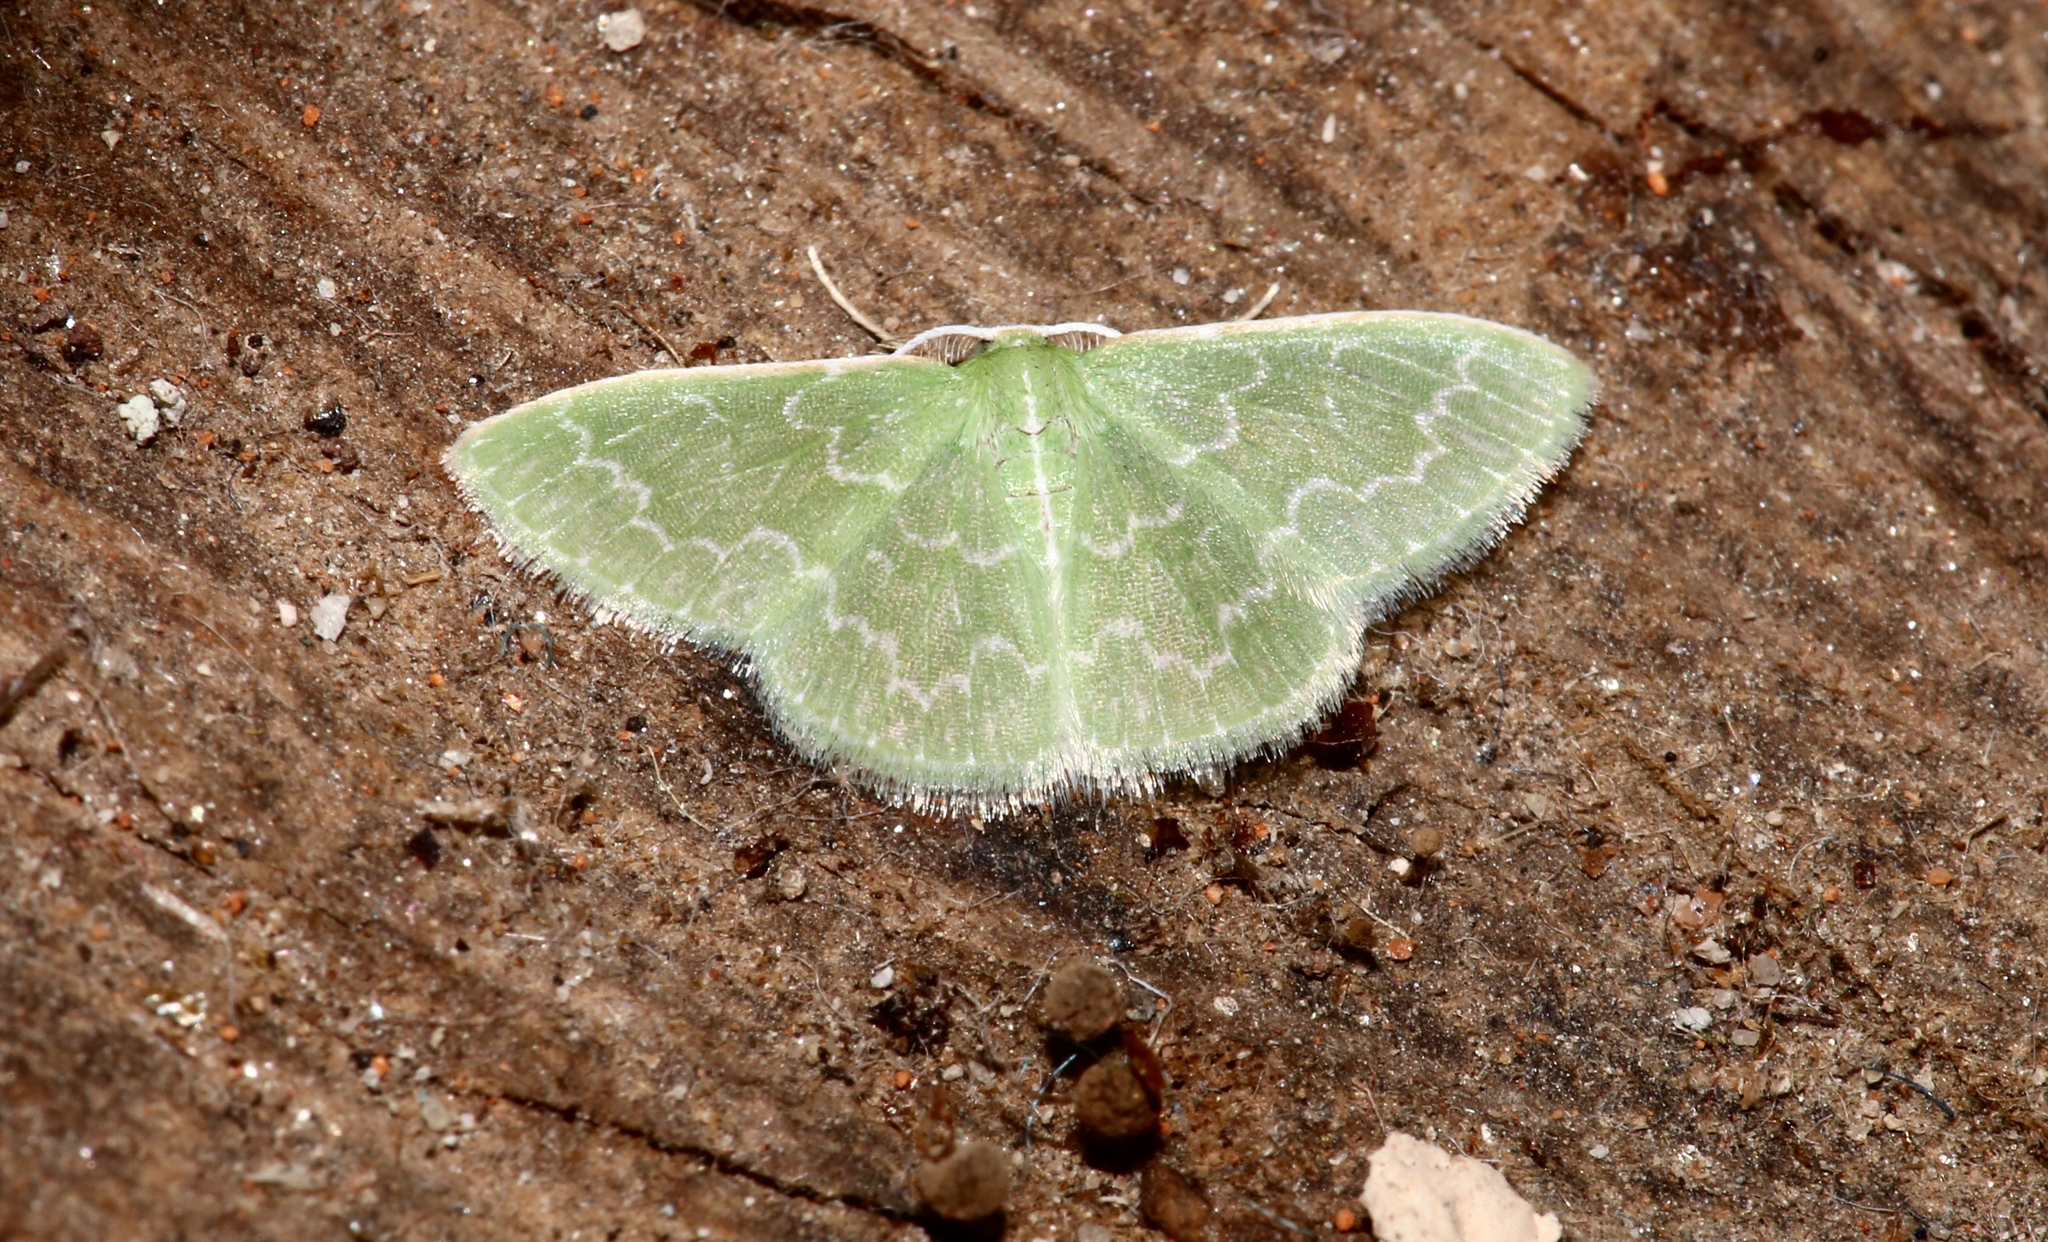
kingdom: Animalia
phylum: Arthropoda
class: Insecta
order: Lepidoptera
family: Geometridae
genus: Synchlora
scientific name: Synchlora frondaria
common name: Southern emerald
